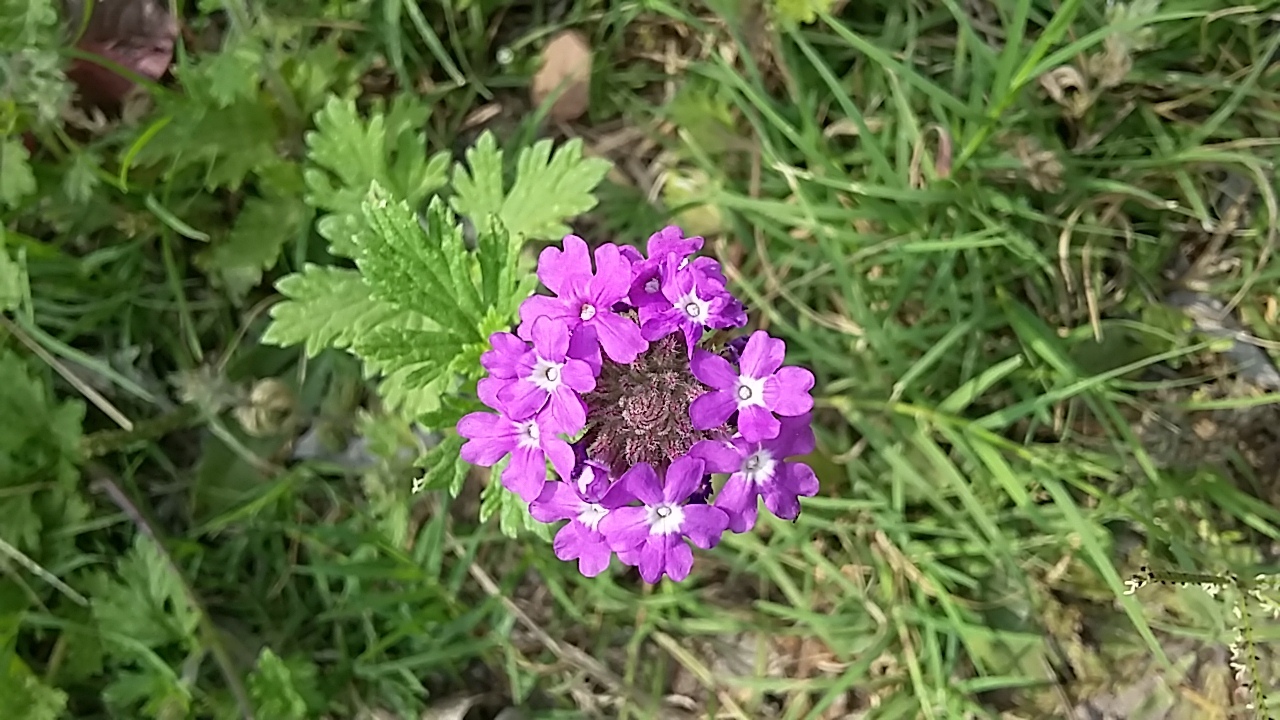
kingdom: Plantae
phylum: Tracheophyta
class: Magnoliopsida
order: Lamiales
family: Verbenaceae
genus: Verbena
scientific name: Verbena delticola
